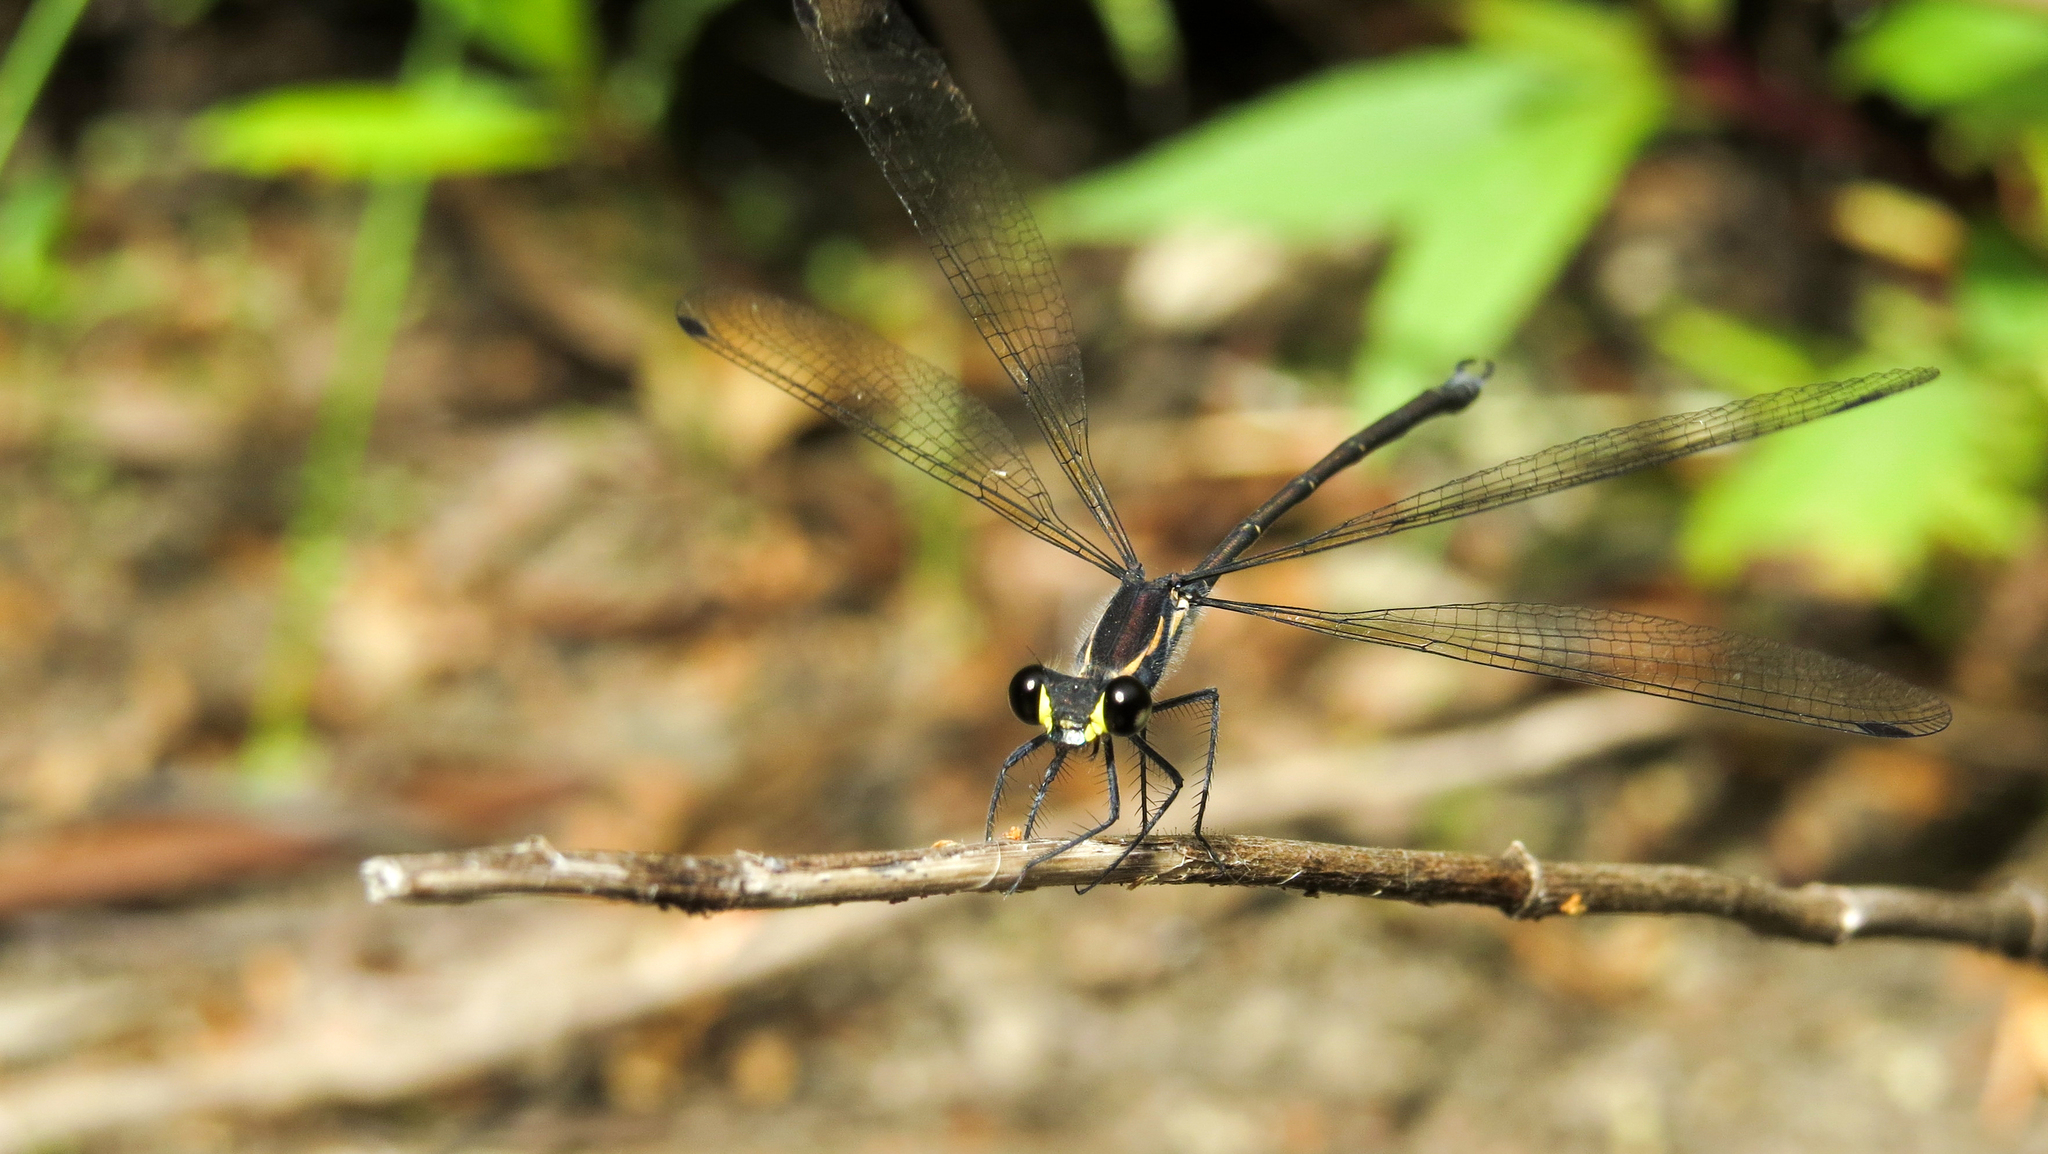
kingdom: Animalia
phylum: Arthropoda
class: Insecta
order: Odonata
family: Argiolestidae
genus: Austroargiolestes
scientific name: Austroargiolestes icteromelas
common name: Common flatwing
